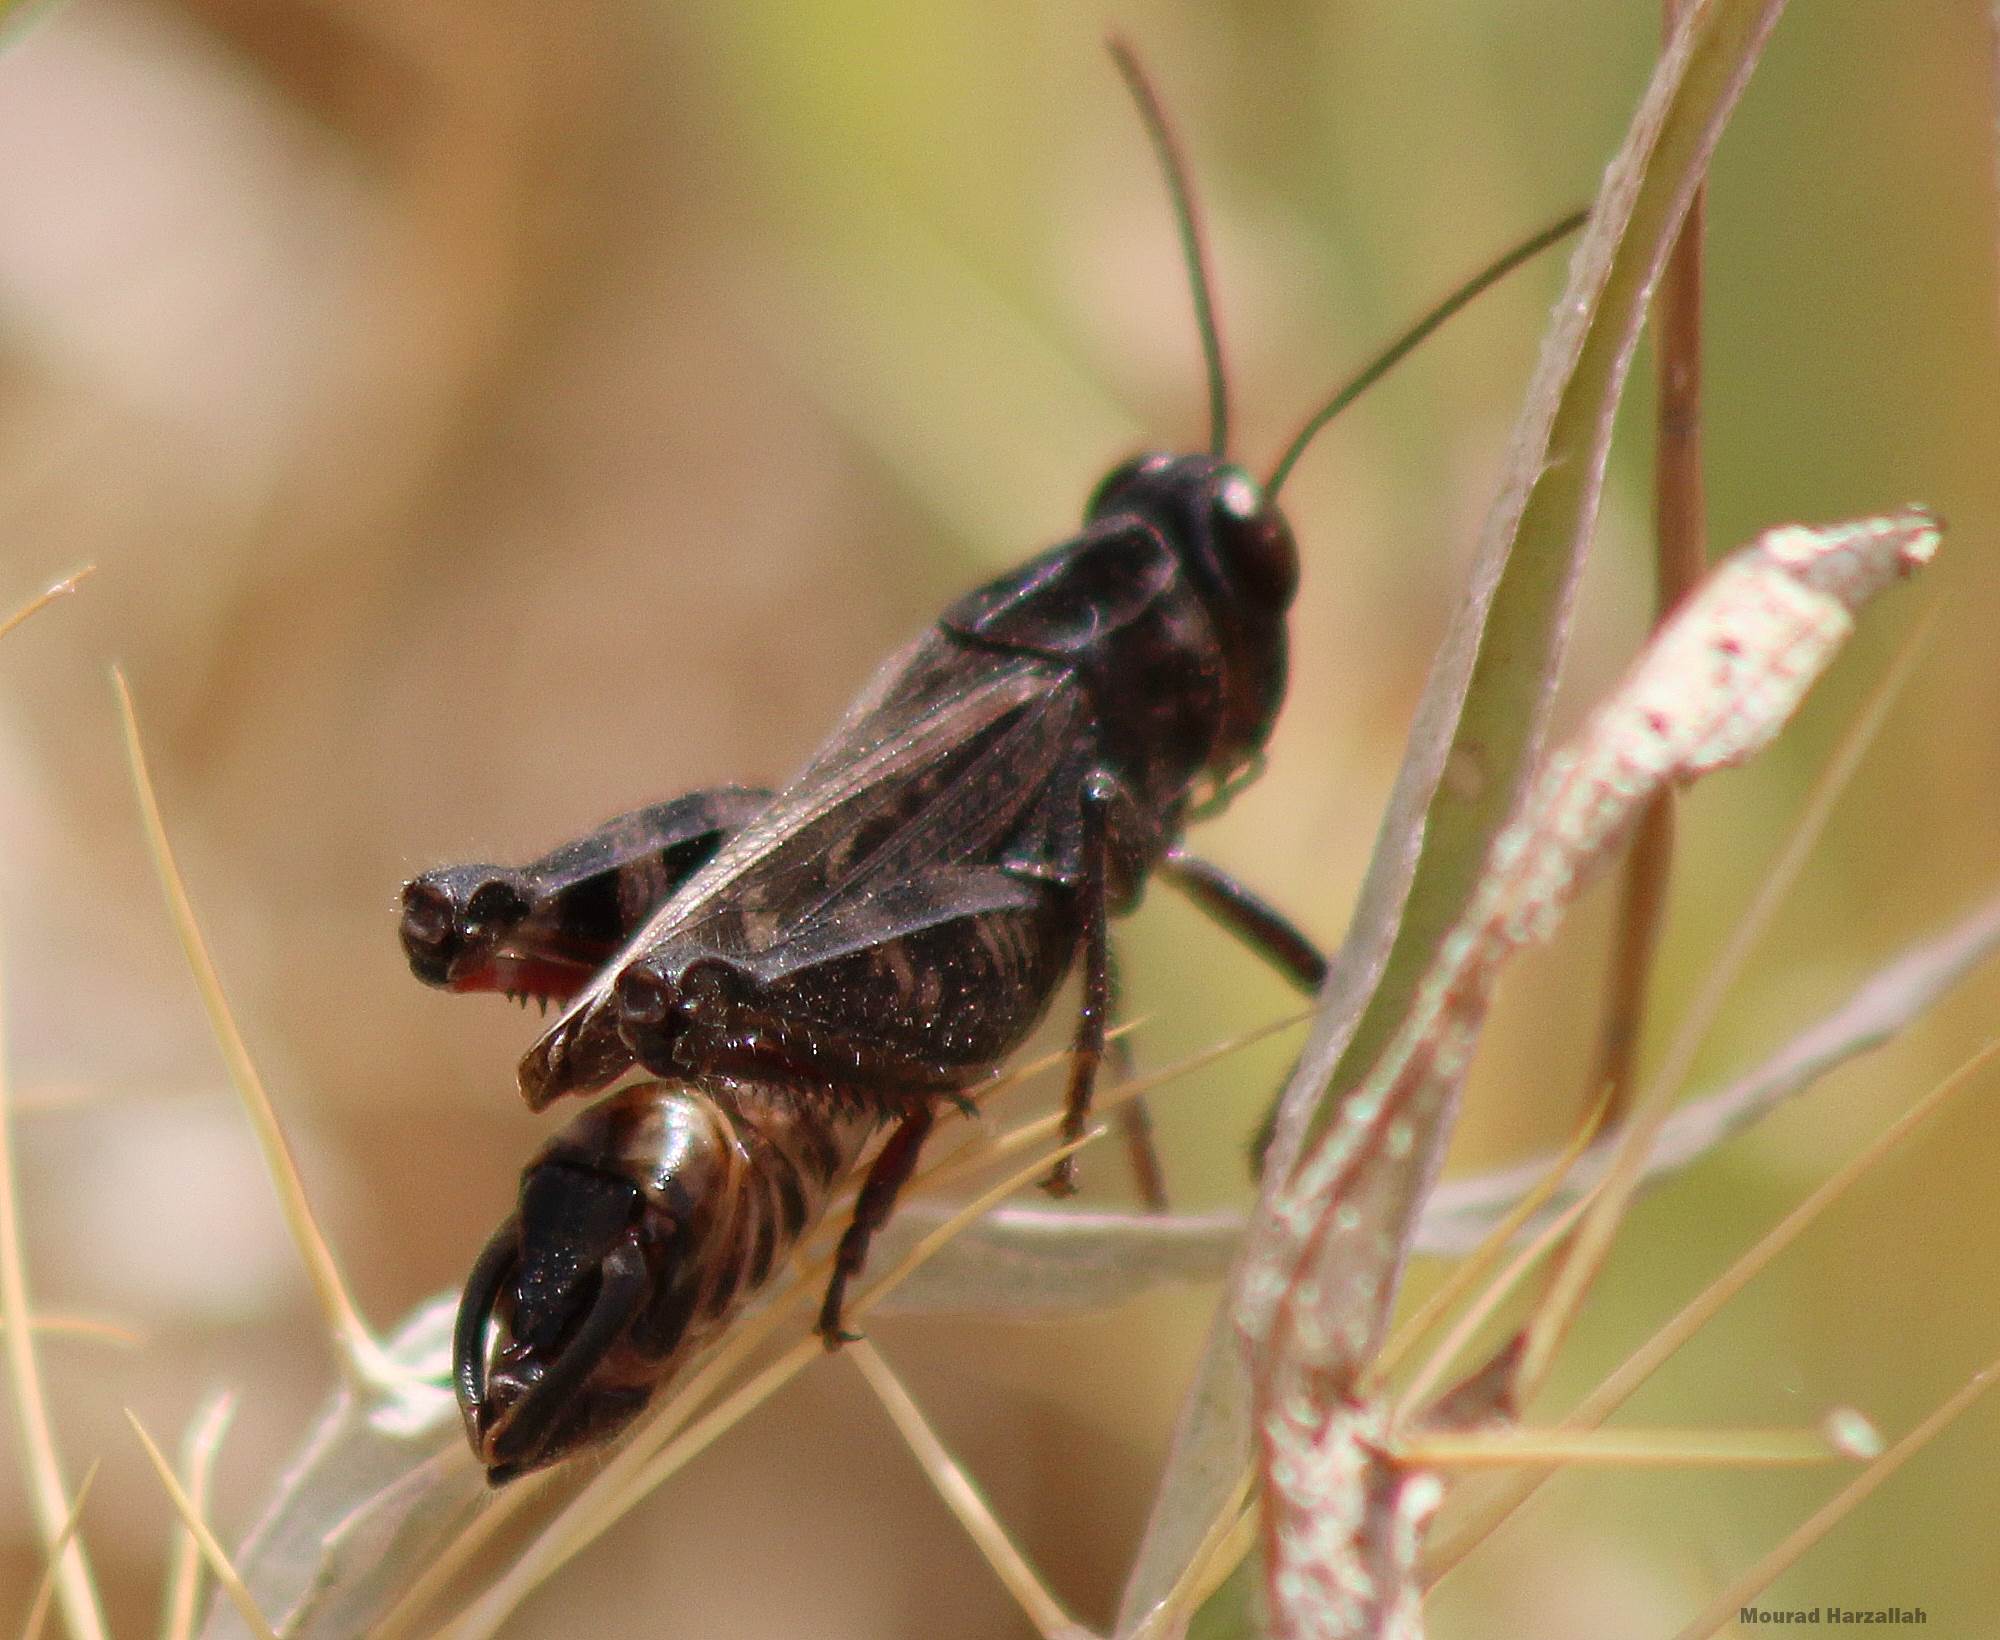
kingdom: Animalia
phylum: Arthropoda
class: Insecta
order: Orthoptera
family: Acrididae
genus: Calliptamus
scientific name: Calliptamus wattenwylianus
